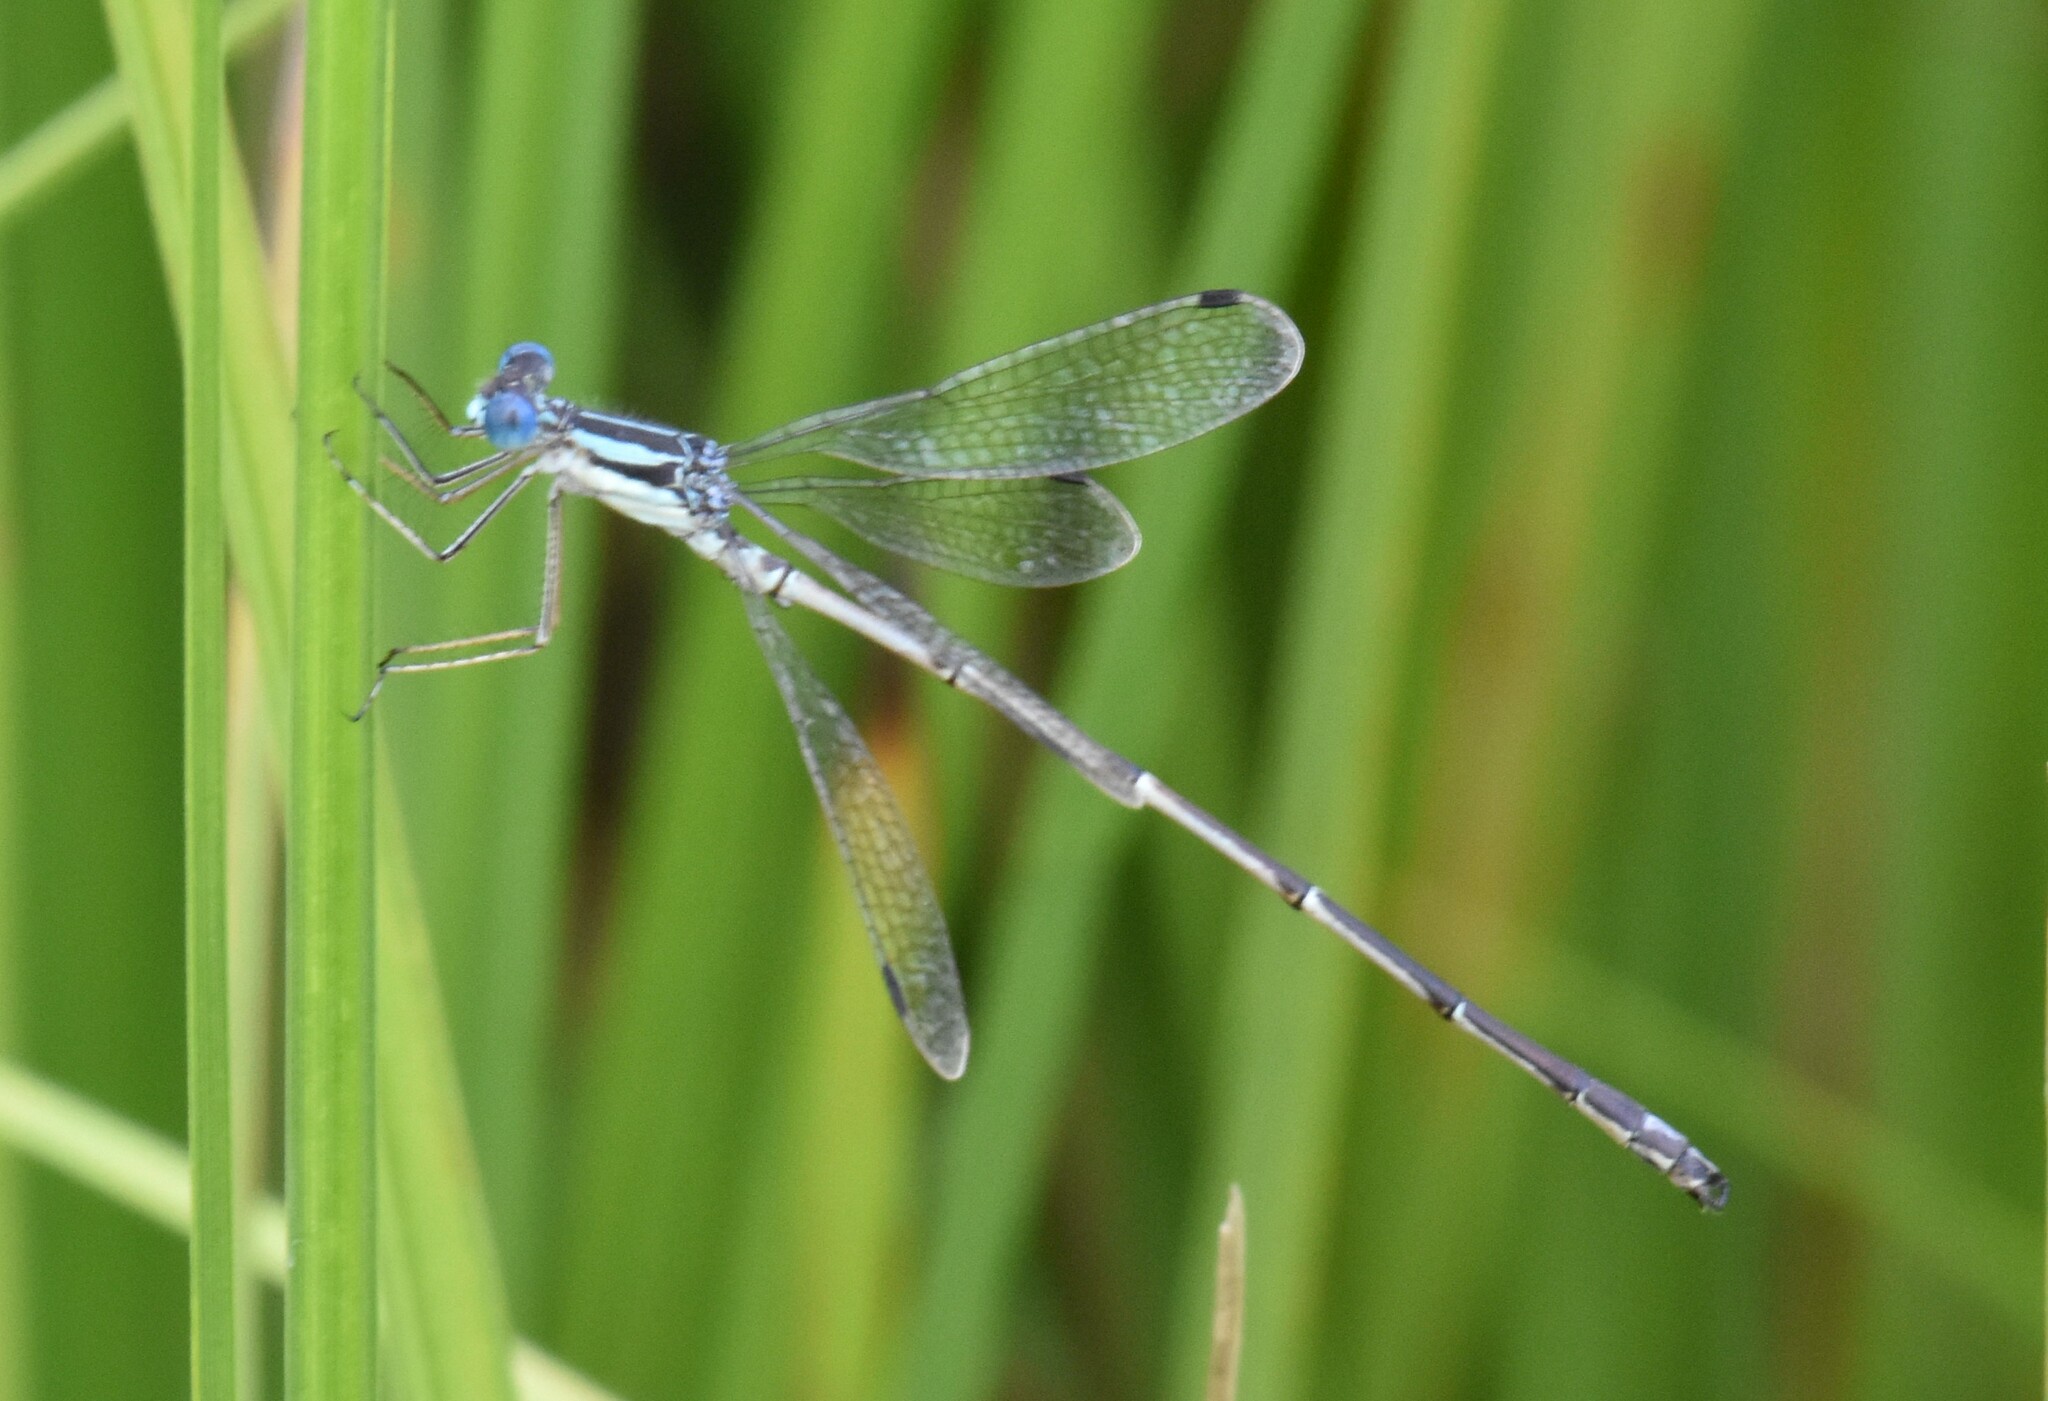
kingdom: Animalia
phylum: Arthropoda
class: Insecta
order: Odonata
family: Lestidae
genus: Lestes
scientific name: Lestes rectangularis
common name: Slender spreadwing
